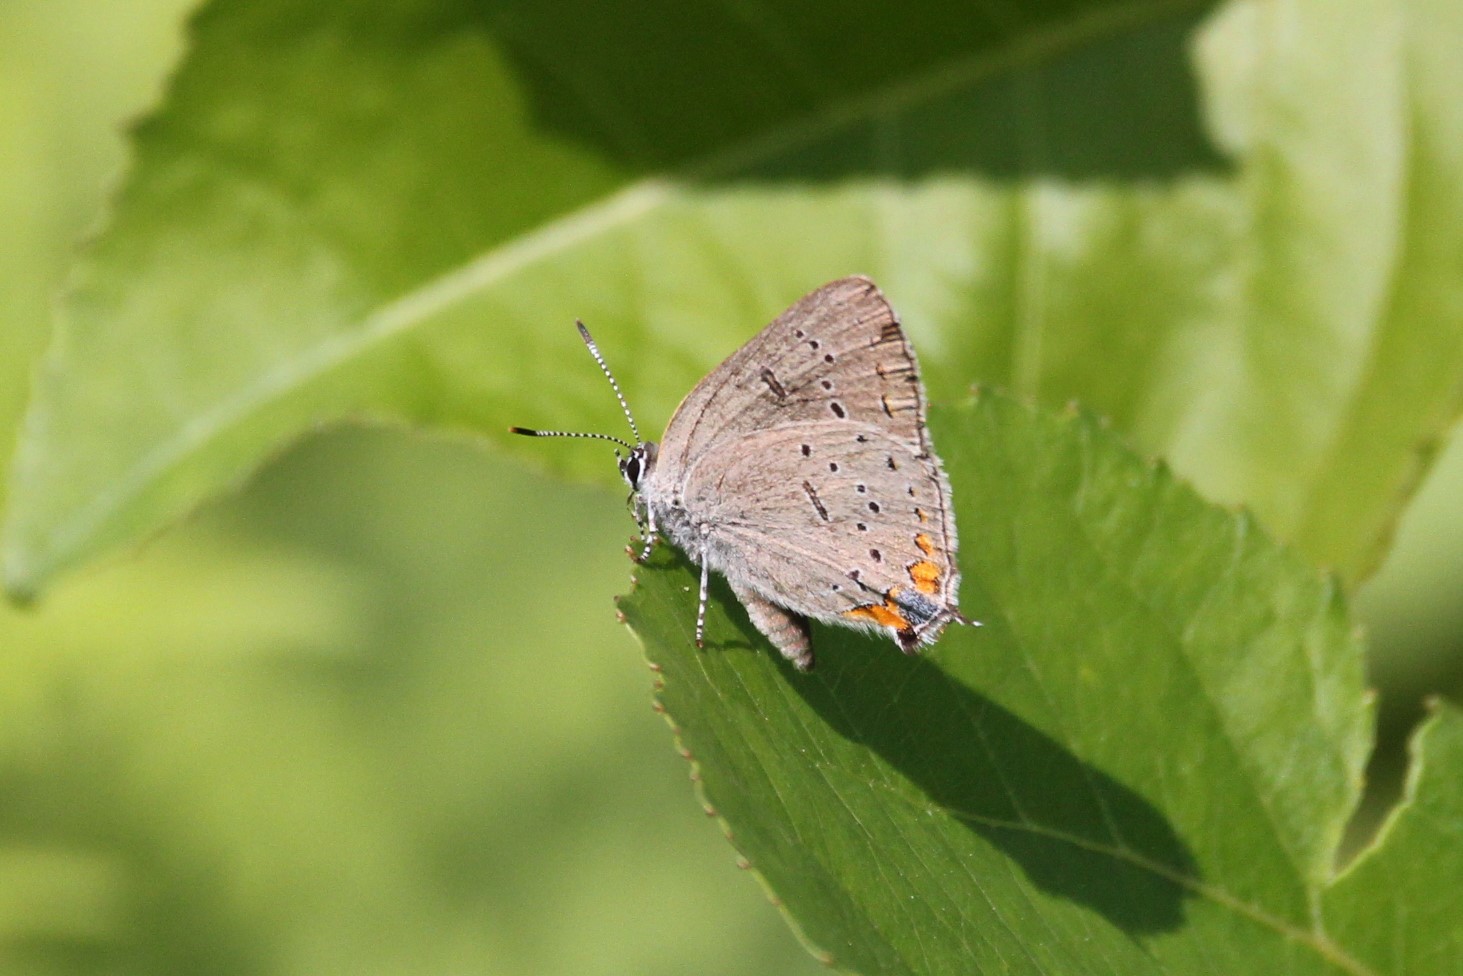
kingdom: Animalia
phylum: Arthropoda
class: Insecta
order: Lepidoptera
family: Lycaenidae
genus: Strymon
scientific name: Strymon acadica
